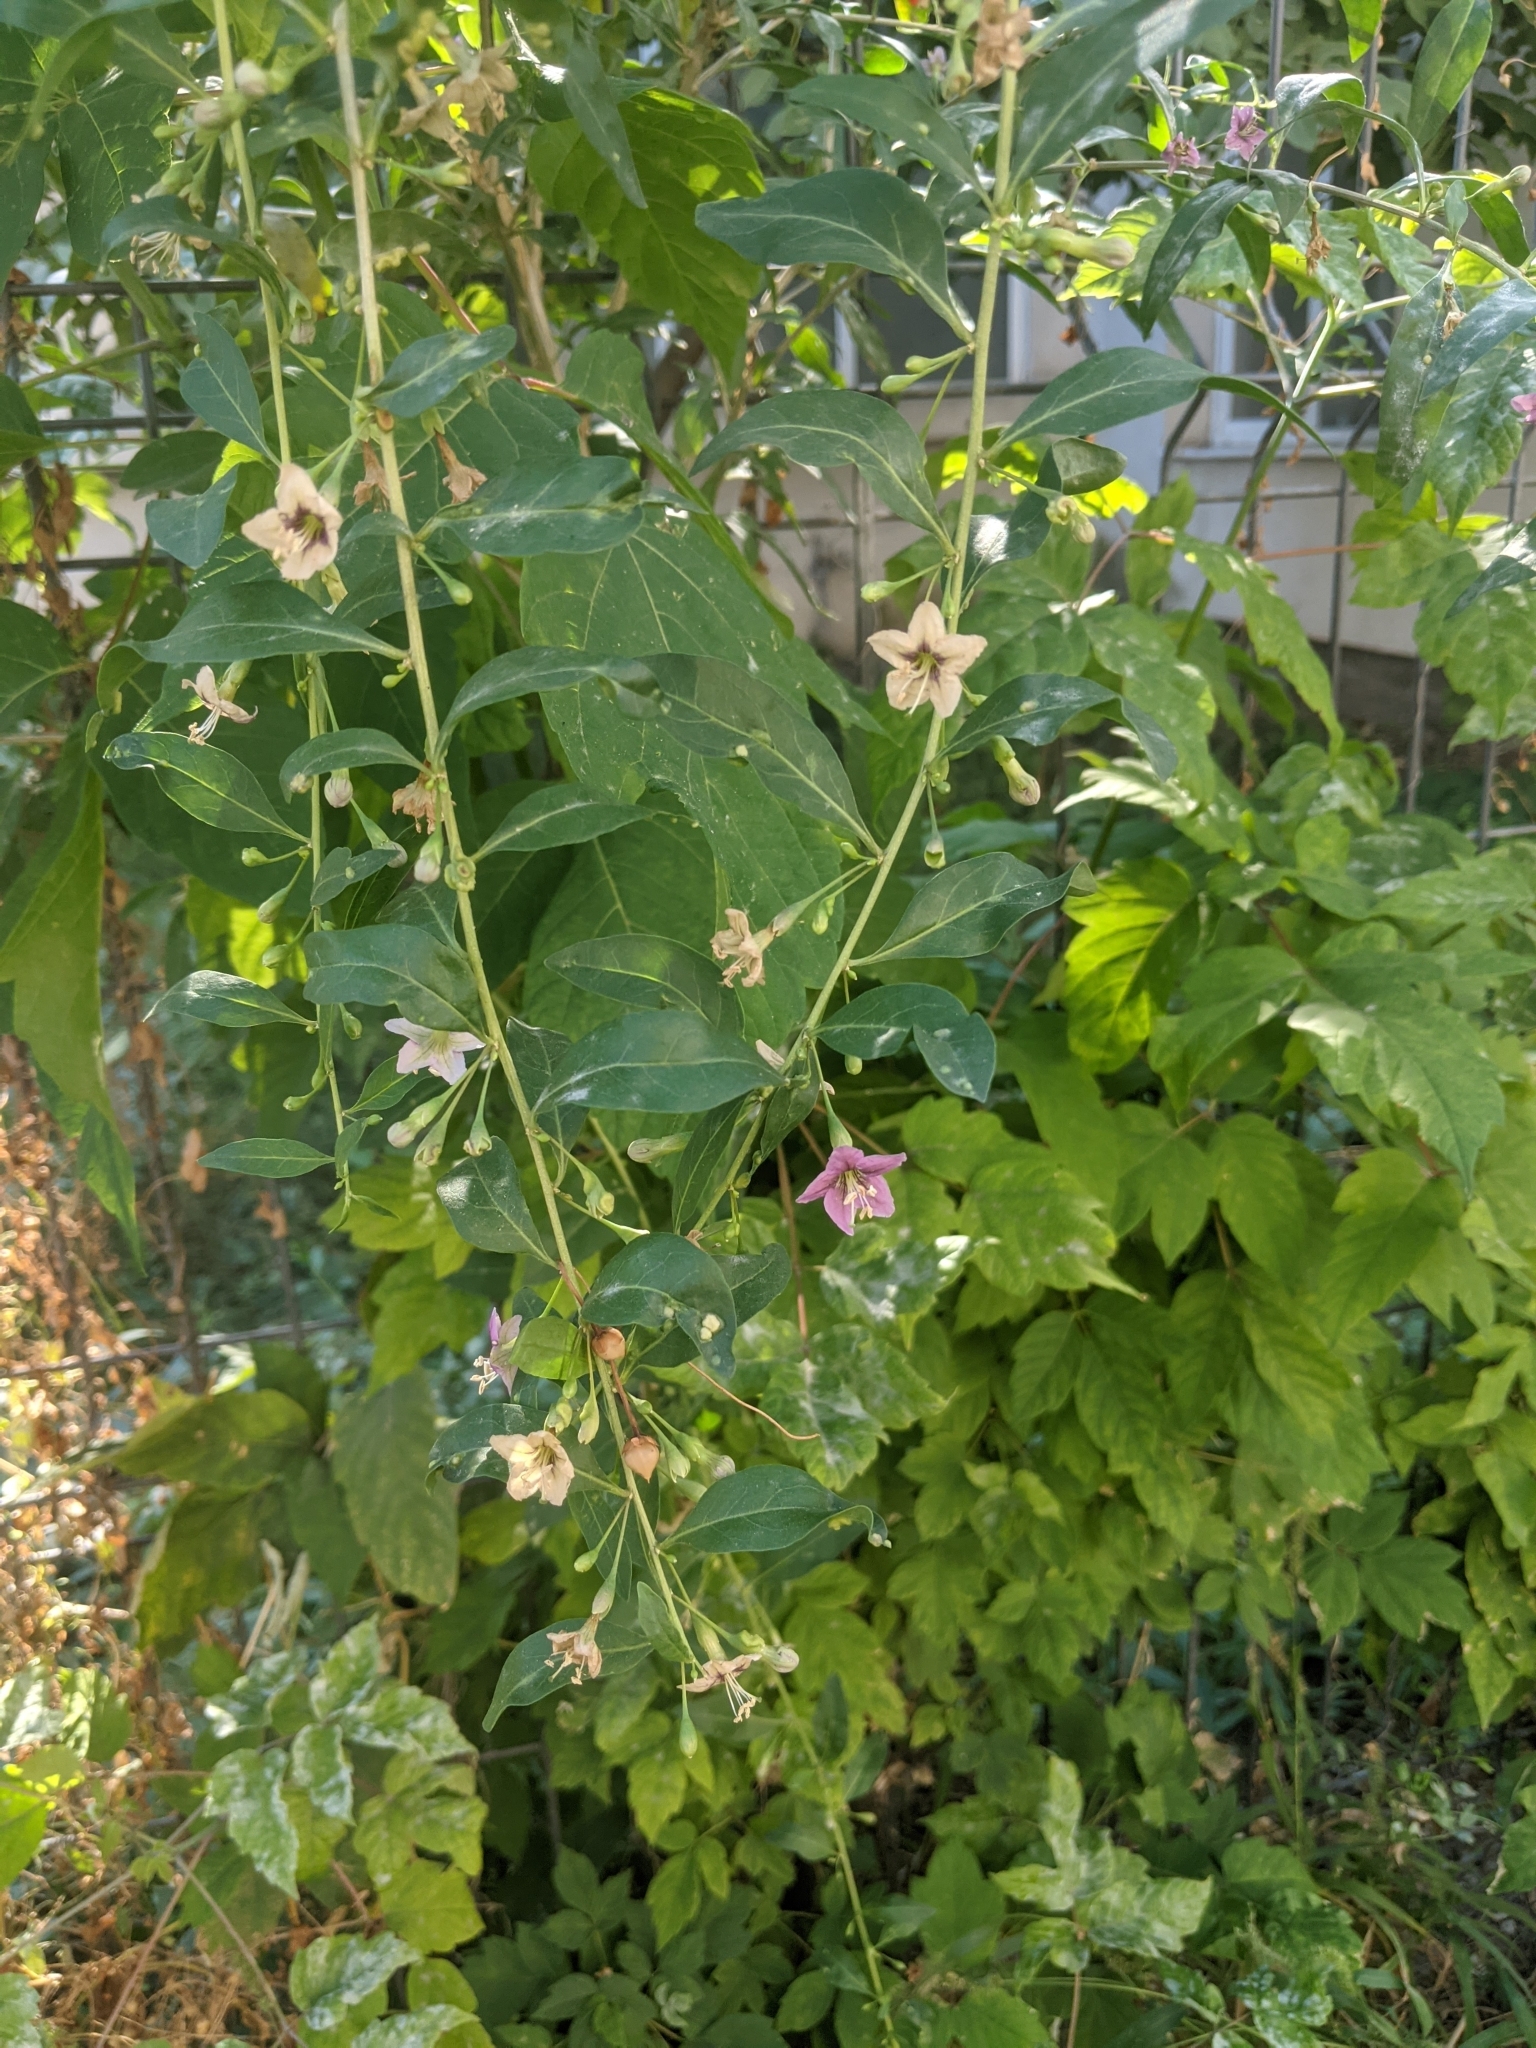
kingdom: Plantae
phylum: Tracheophyta
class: Magnoliopsida
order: Solanales
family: Solanaceae
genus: Lycium
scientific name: Lycium barbarum
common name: Duke of argyll's teaplant
